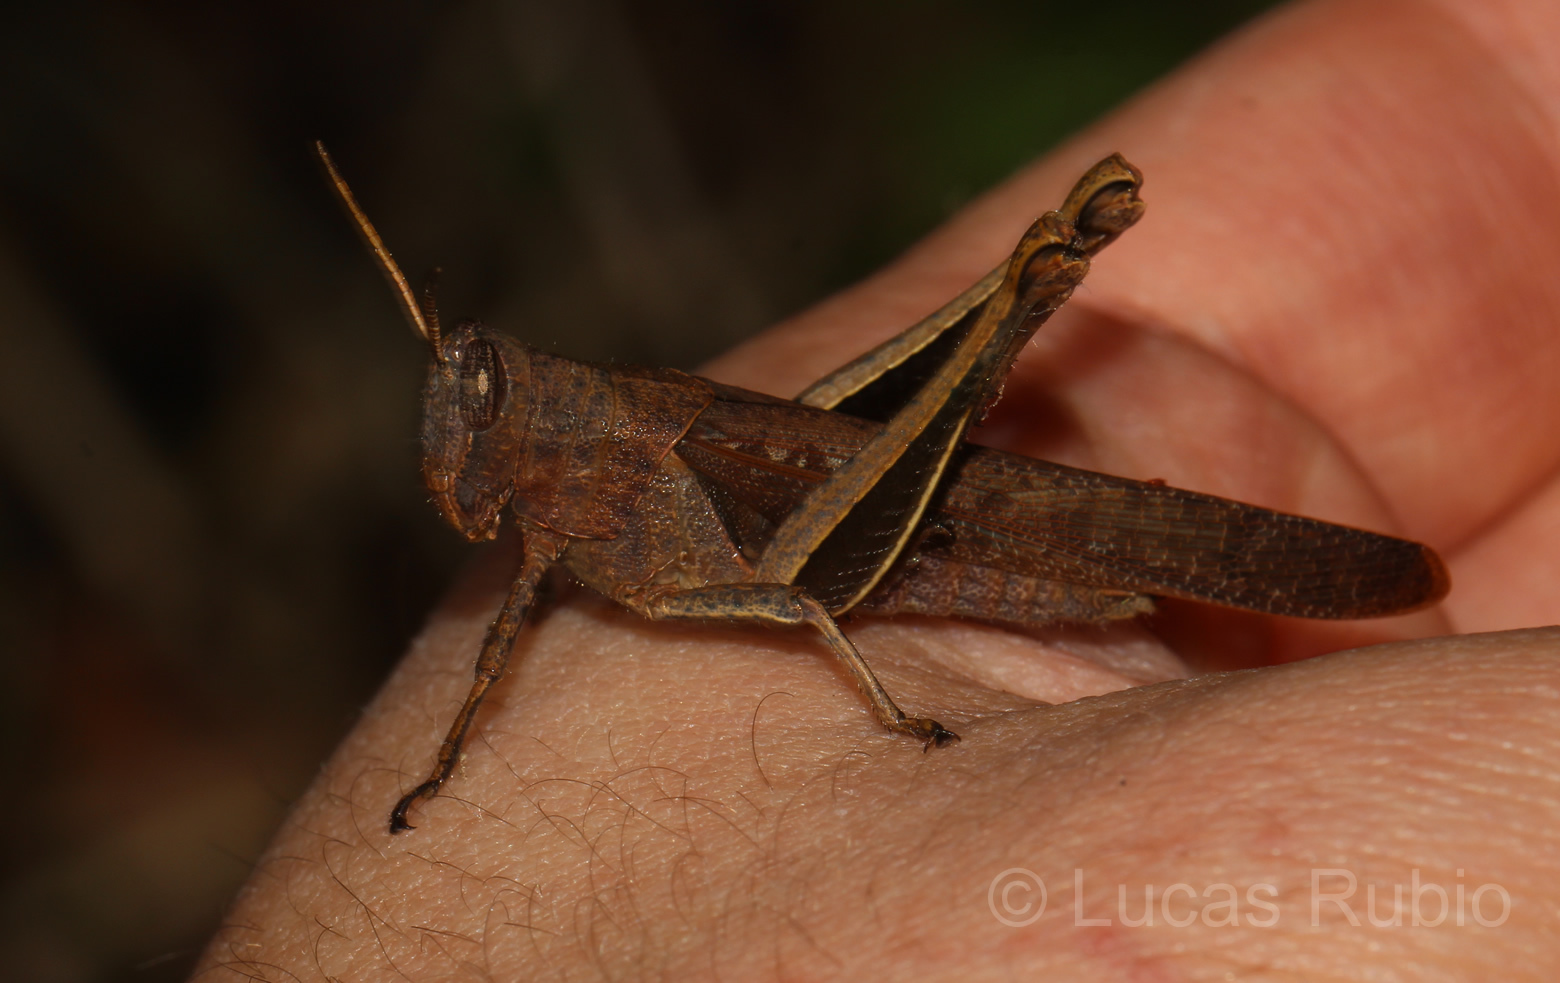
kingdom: Animalia
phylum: Arthropoda
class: Insecta
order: Orthoptera
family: Acrididae
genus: Abracris
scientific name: Abracris flavolineata
